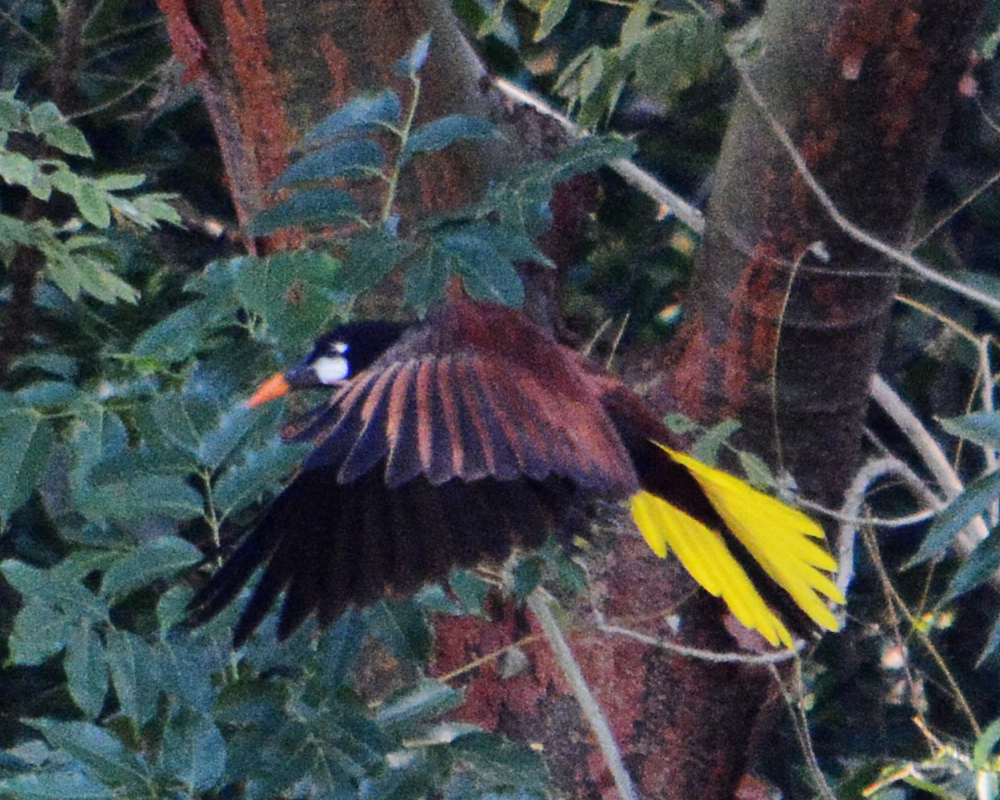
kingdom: Animalia
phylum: Chordata
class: Aves
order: Passeriformes
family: Icteridae
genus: Psarocolius
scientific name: Psarocolius montezuma
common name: Montezuma oropendola
